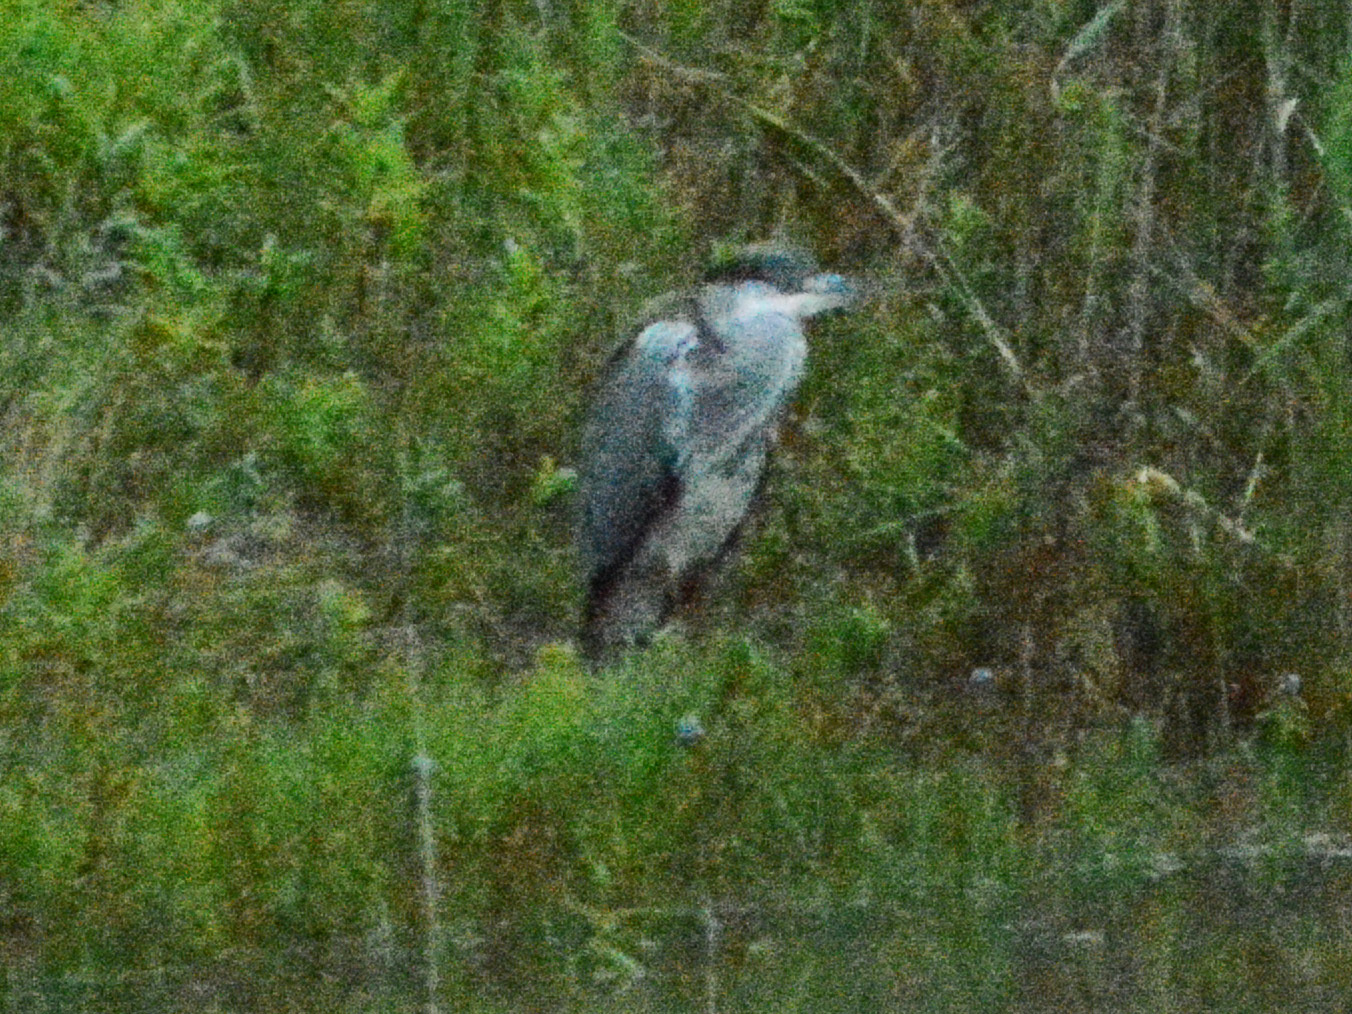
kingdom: Animalia
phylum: Chordata
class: Aves
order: Pelecaniformes
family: Ardeidae
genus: Ardea
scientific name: Ardea cinerea
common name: Grey heron
